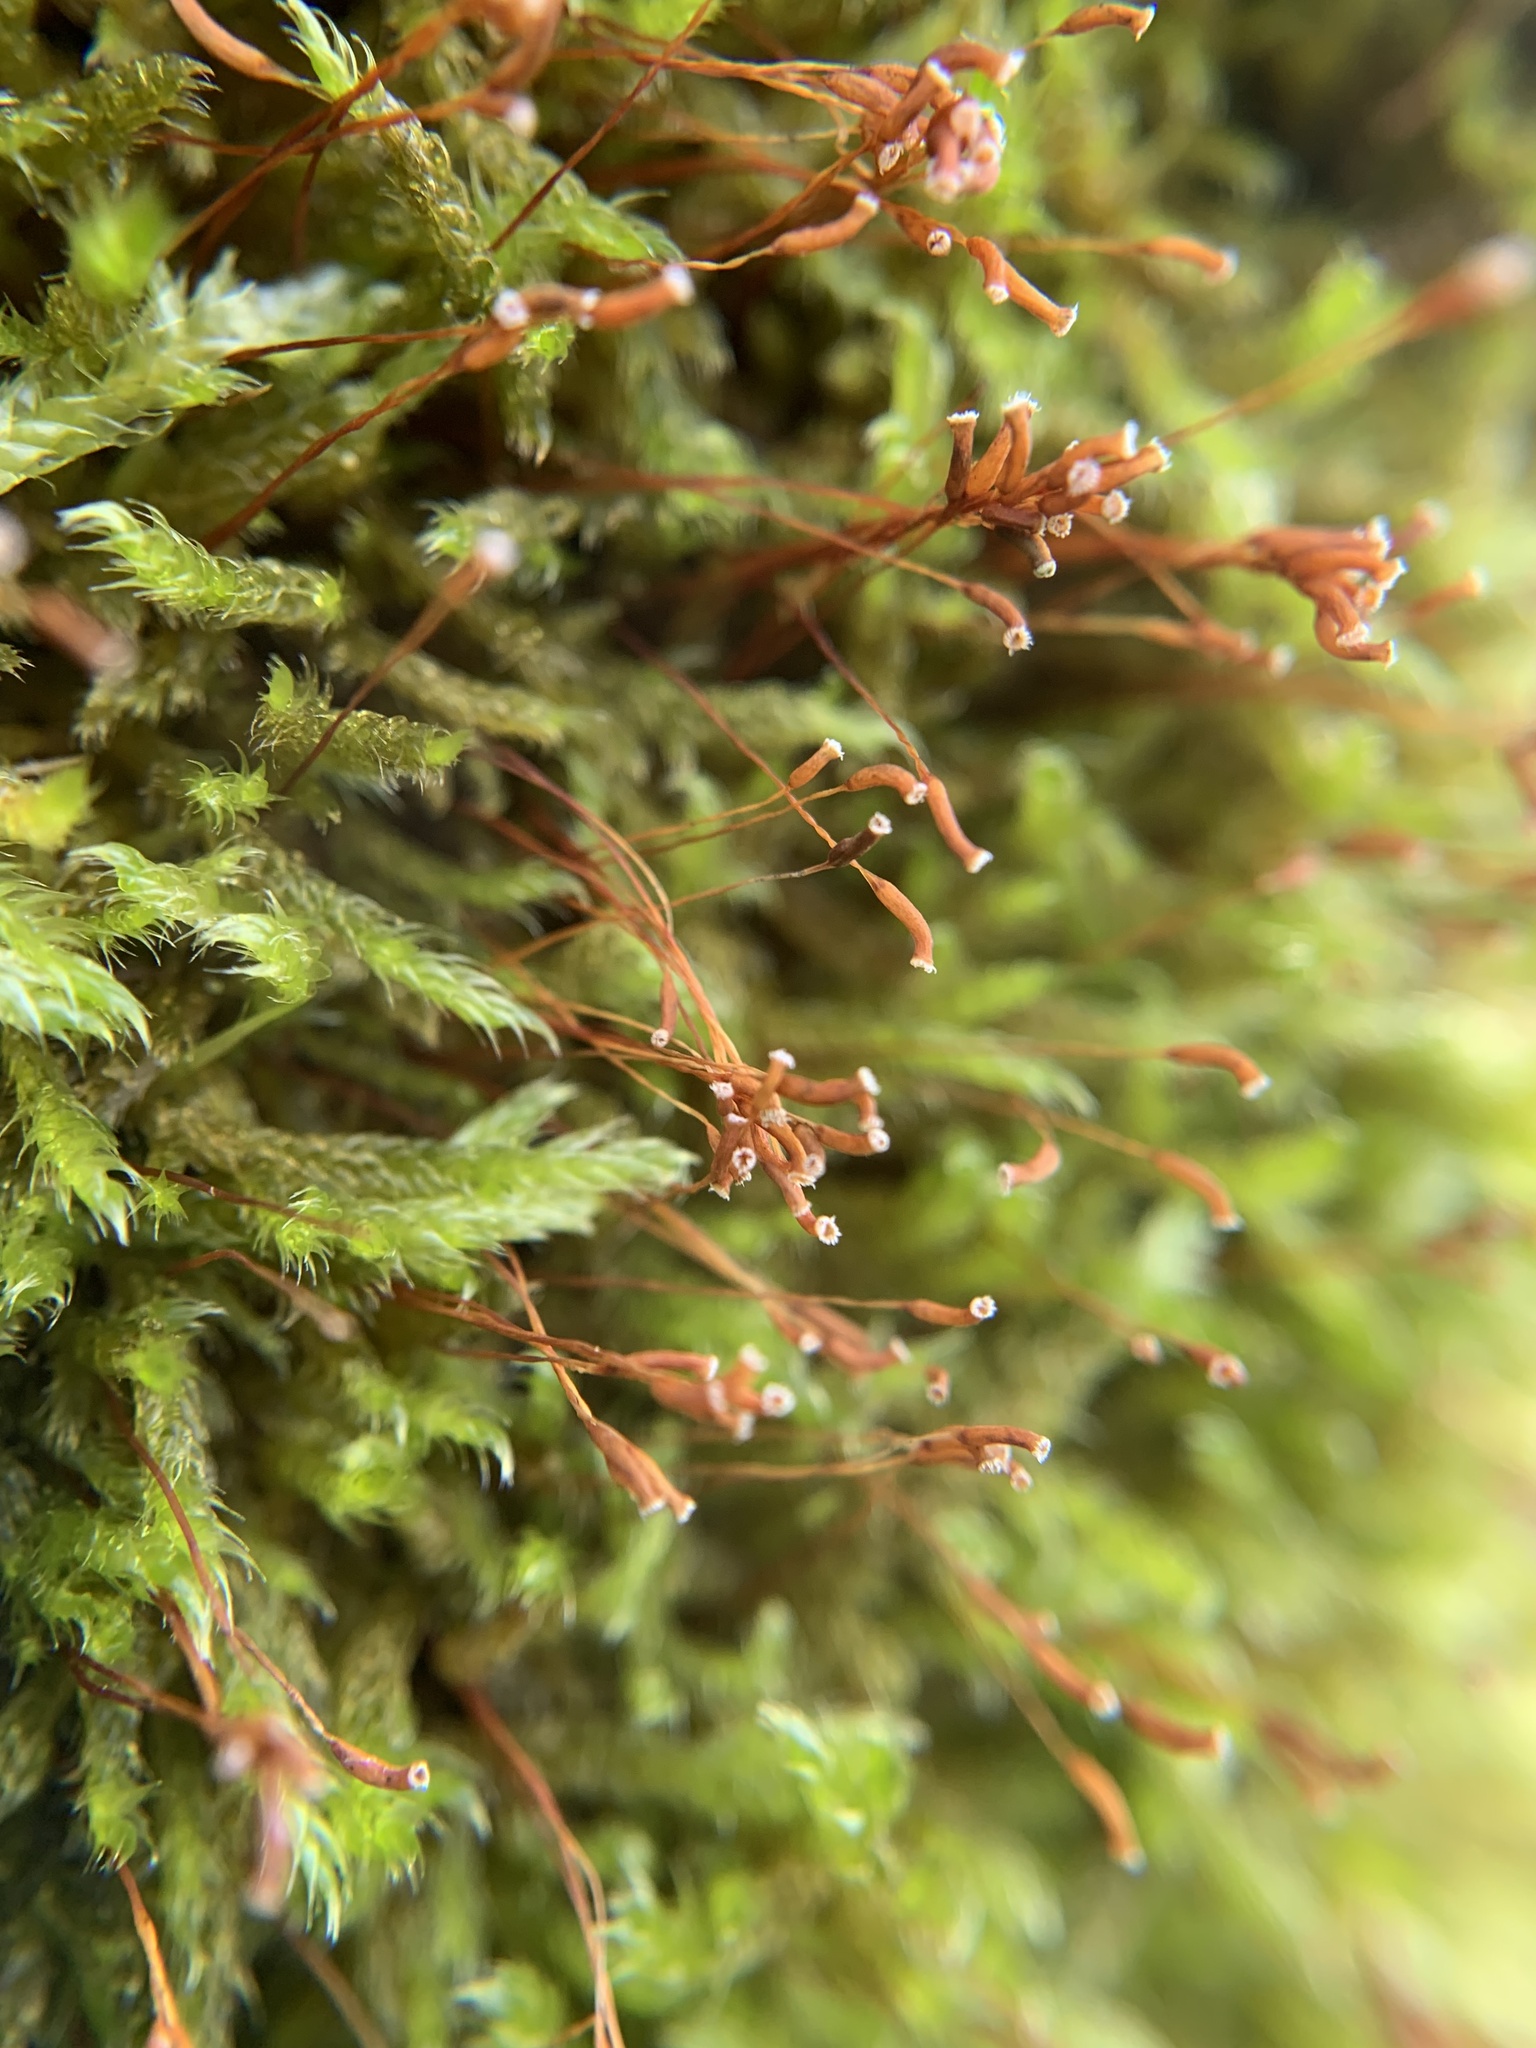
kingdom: Plantae
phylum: Bryophyta
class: Bryopsida
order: Hypnales
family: Hypnaceae
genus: Hypnum
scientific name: Hypnum cupressiforme
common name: Cypress-leaved plait-moss
